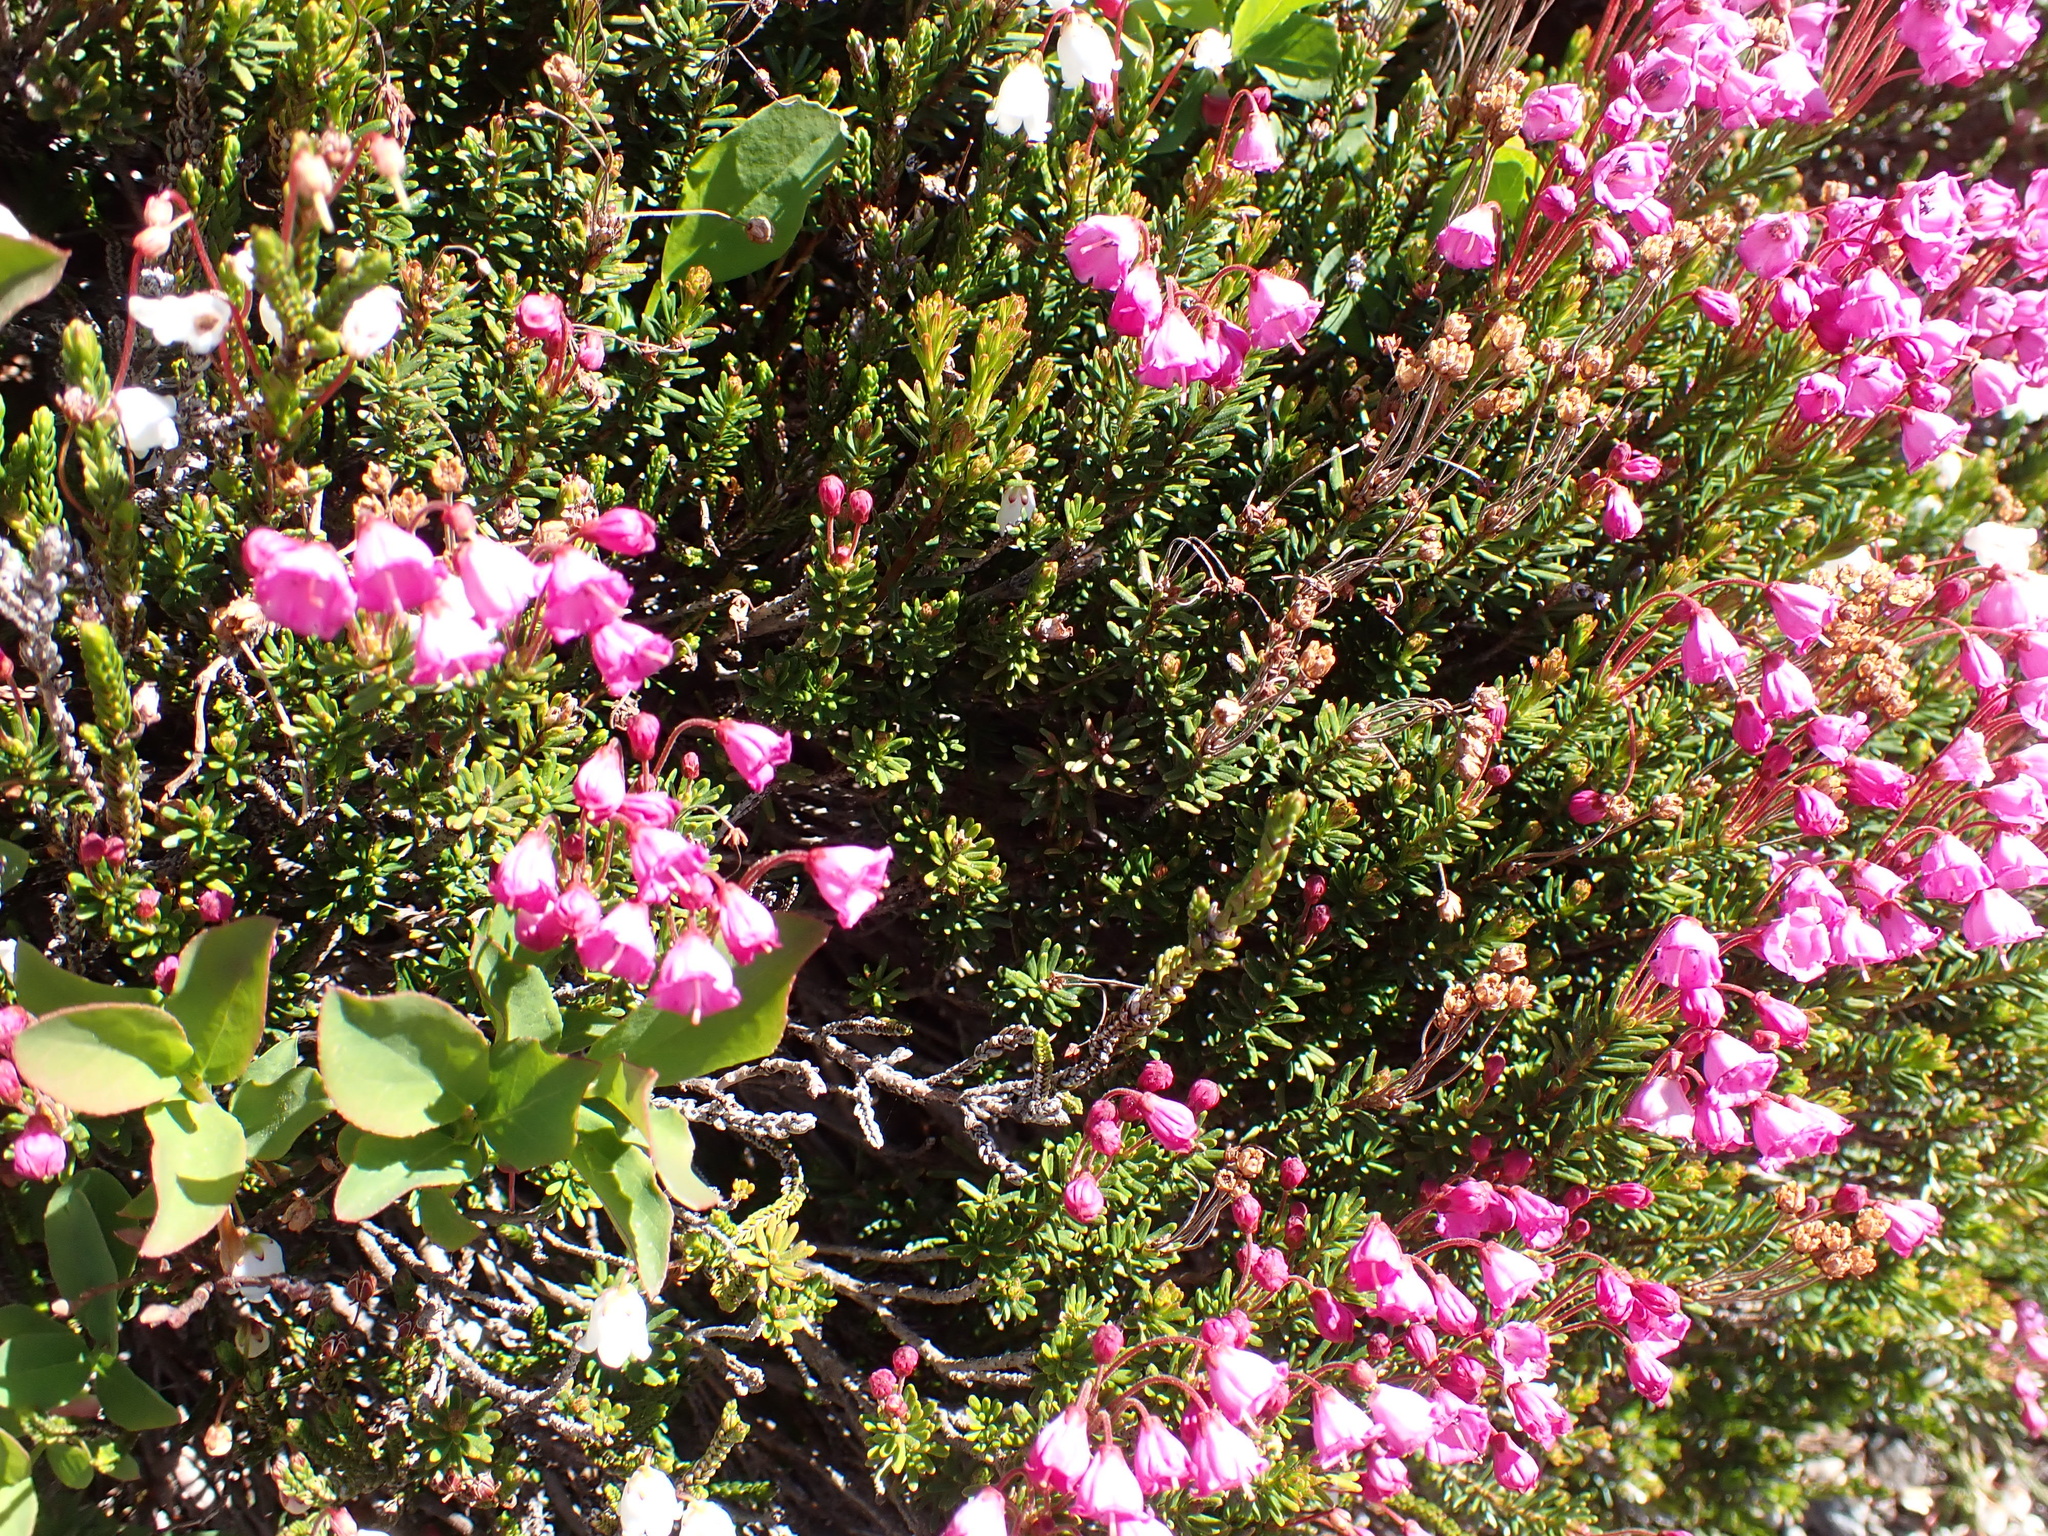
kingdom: Plantae
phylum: Tracheophyta
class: Magnoliopsida
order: Ericales
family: Ericaceae
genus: Phyllodoce
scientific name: Phyllodoce empetriformis
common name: Pink mountain heather
